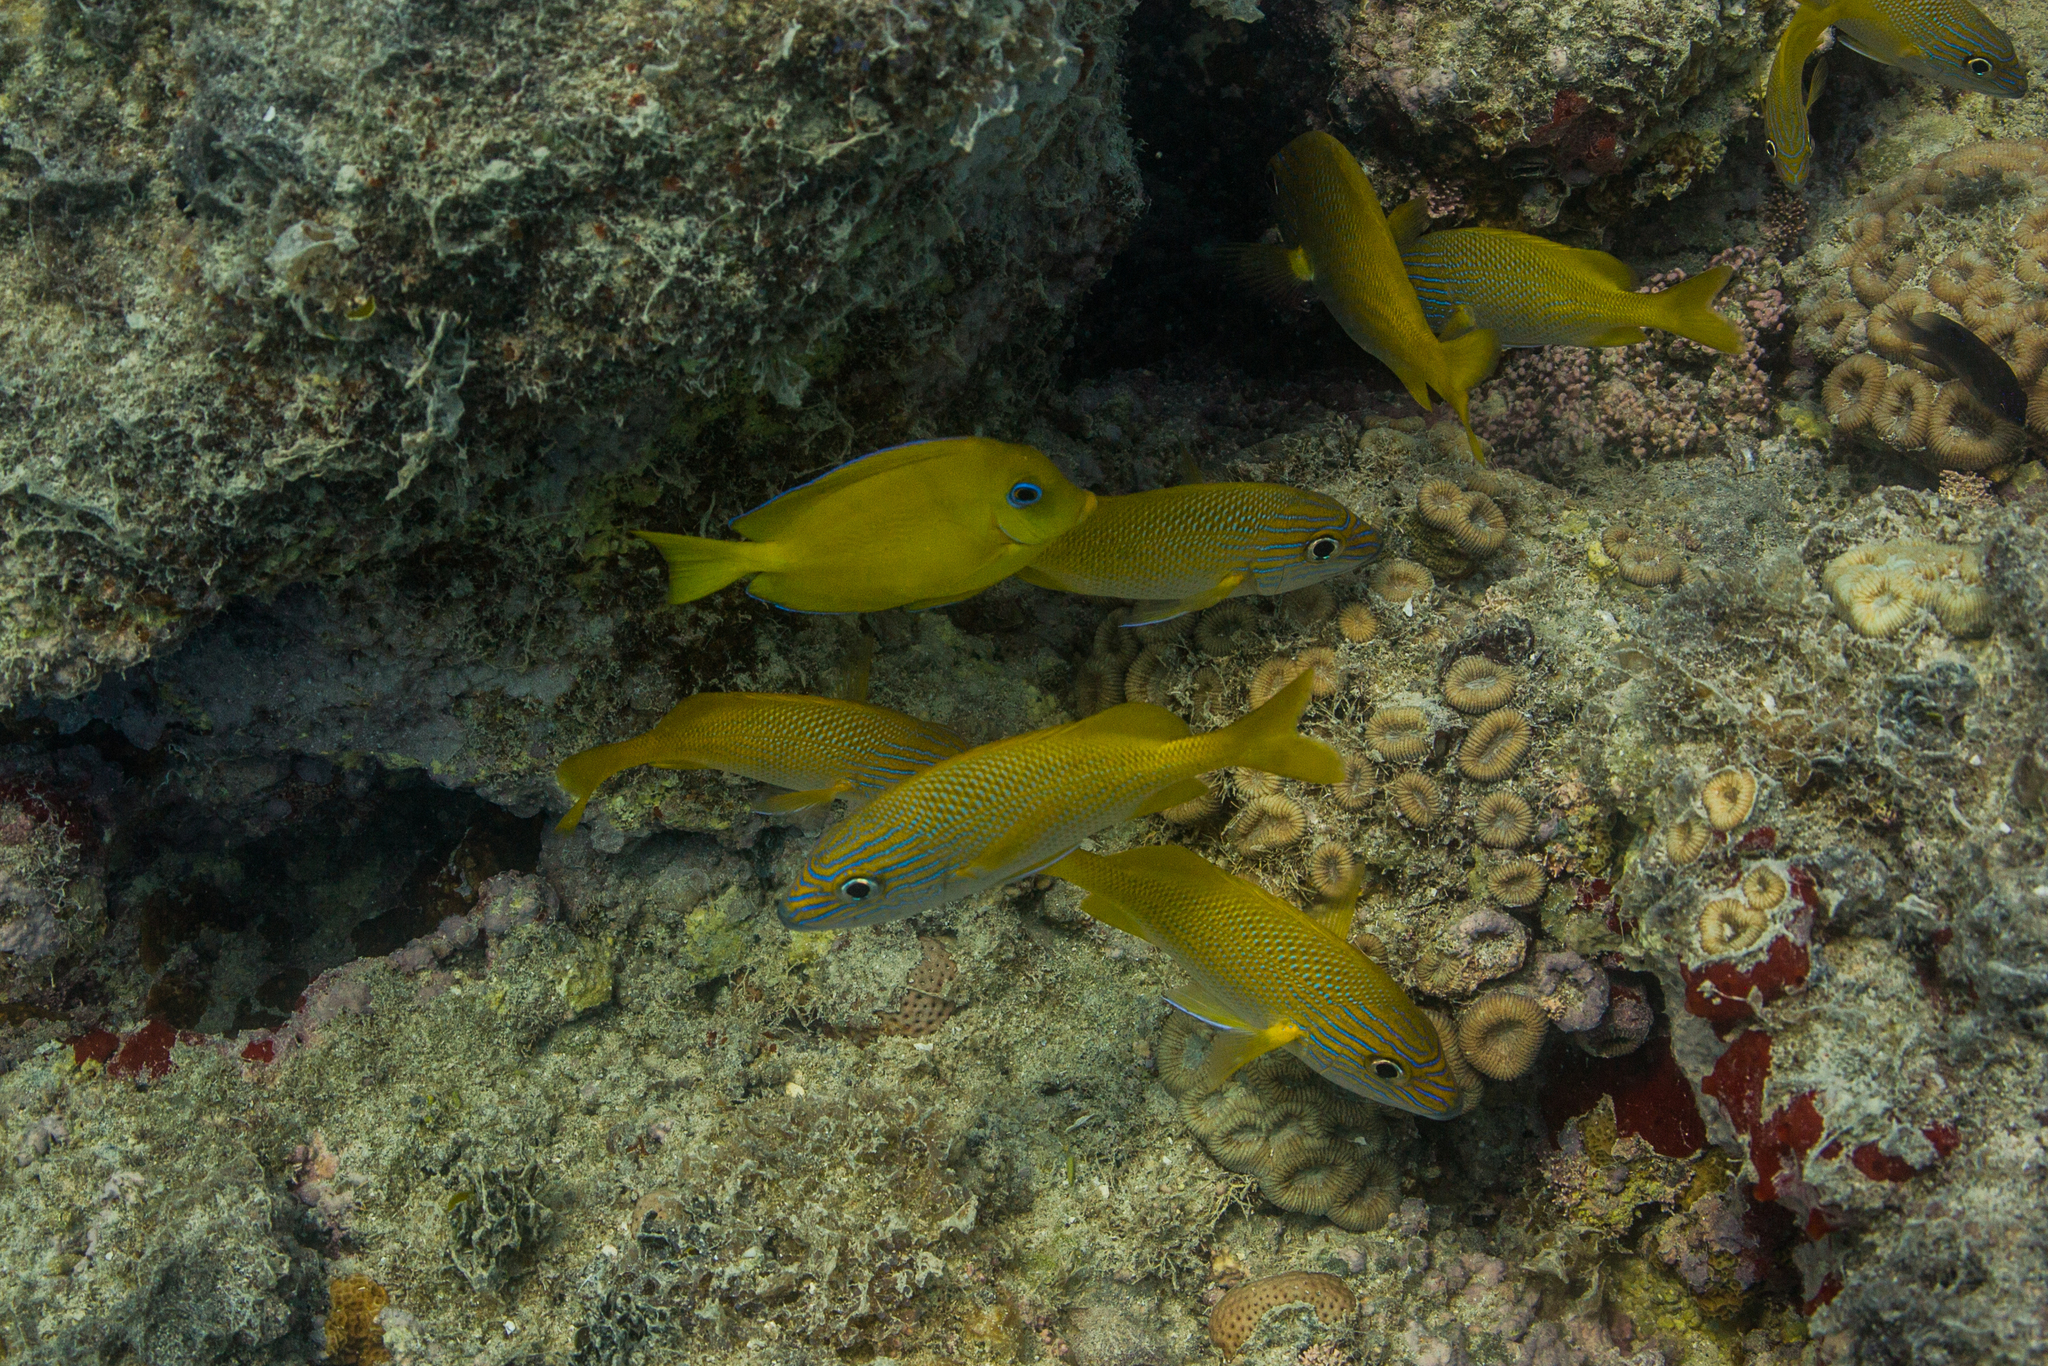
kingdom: Animalia
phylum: Chordata
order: Perciformes
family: Haemulidae
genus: Haemulon
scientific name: Haemulon plumierii
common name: White grunt
